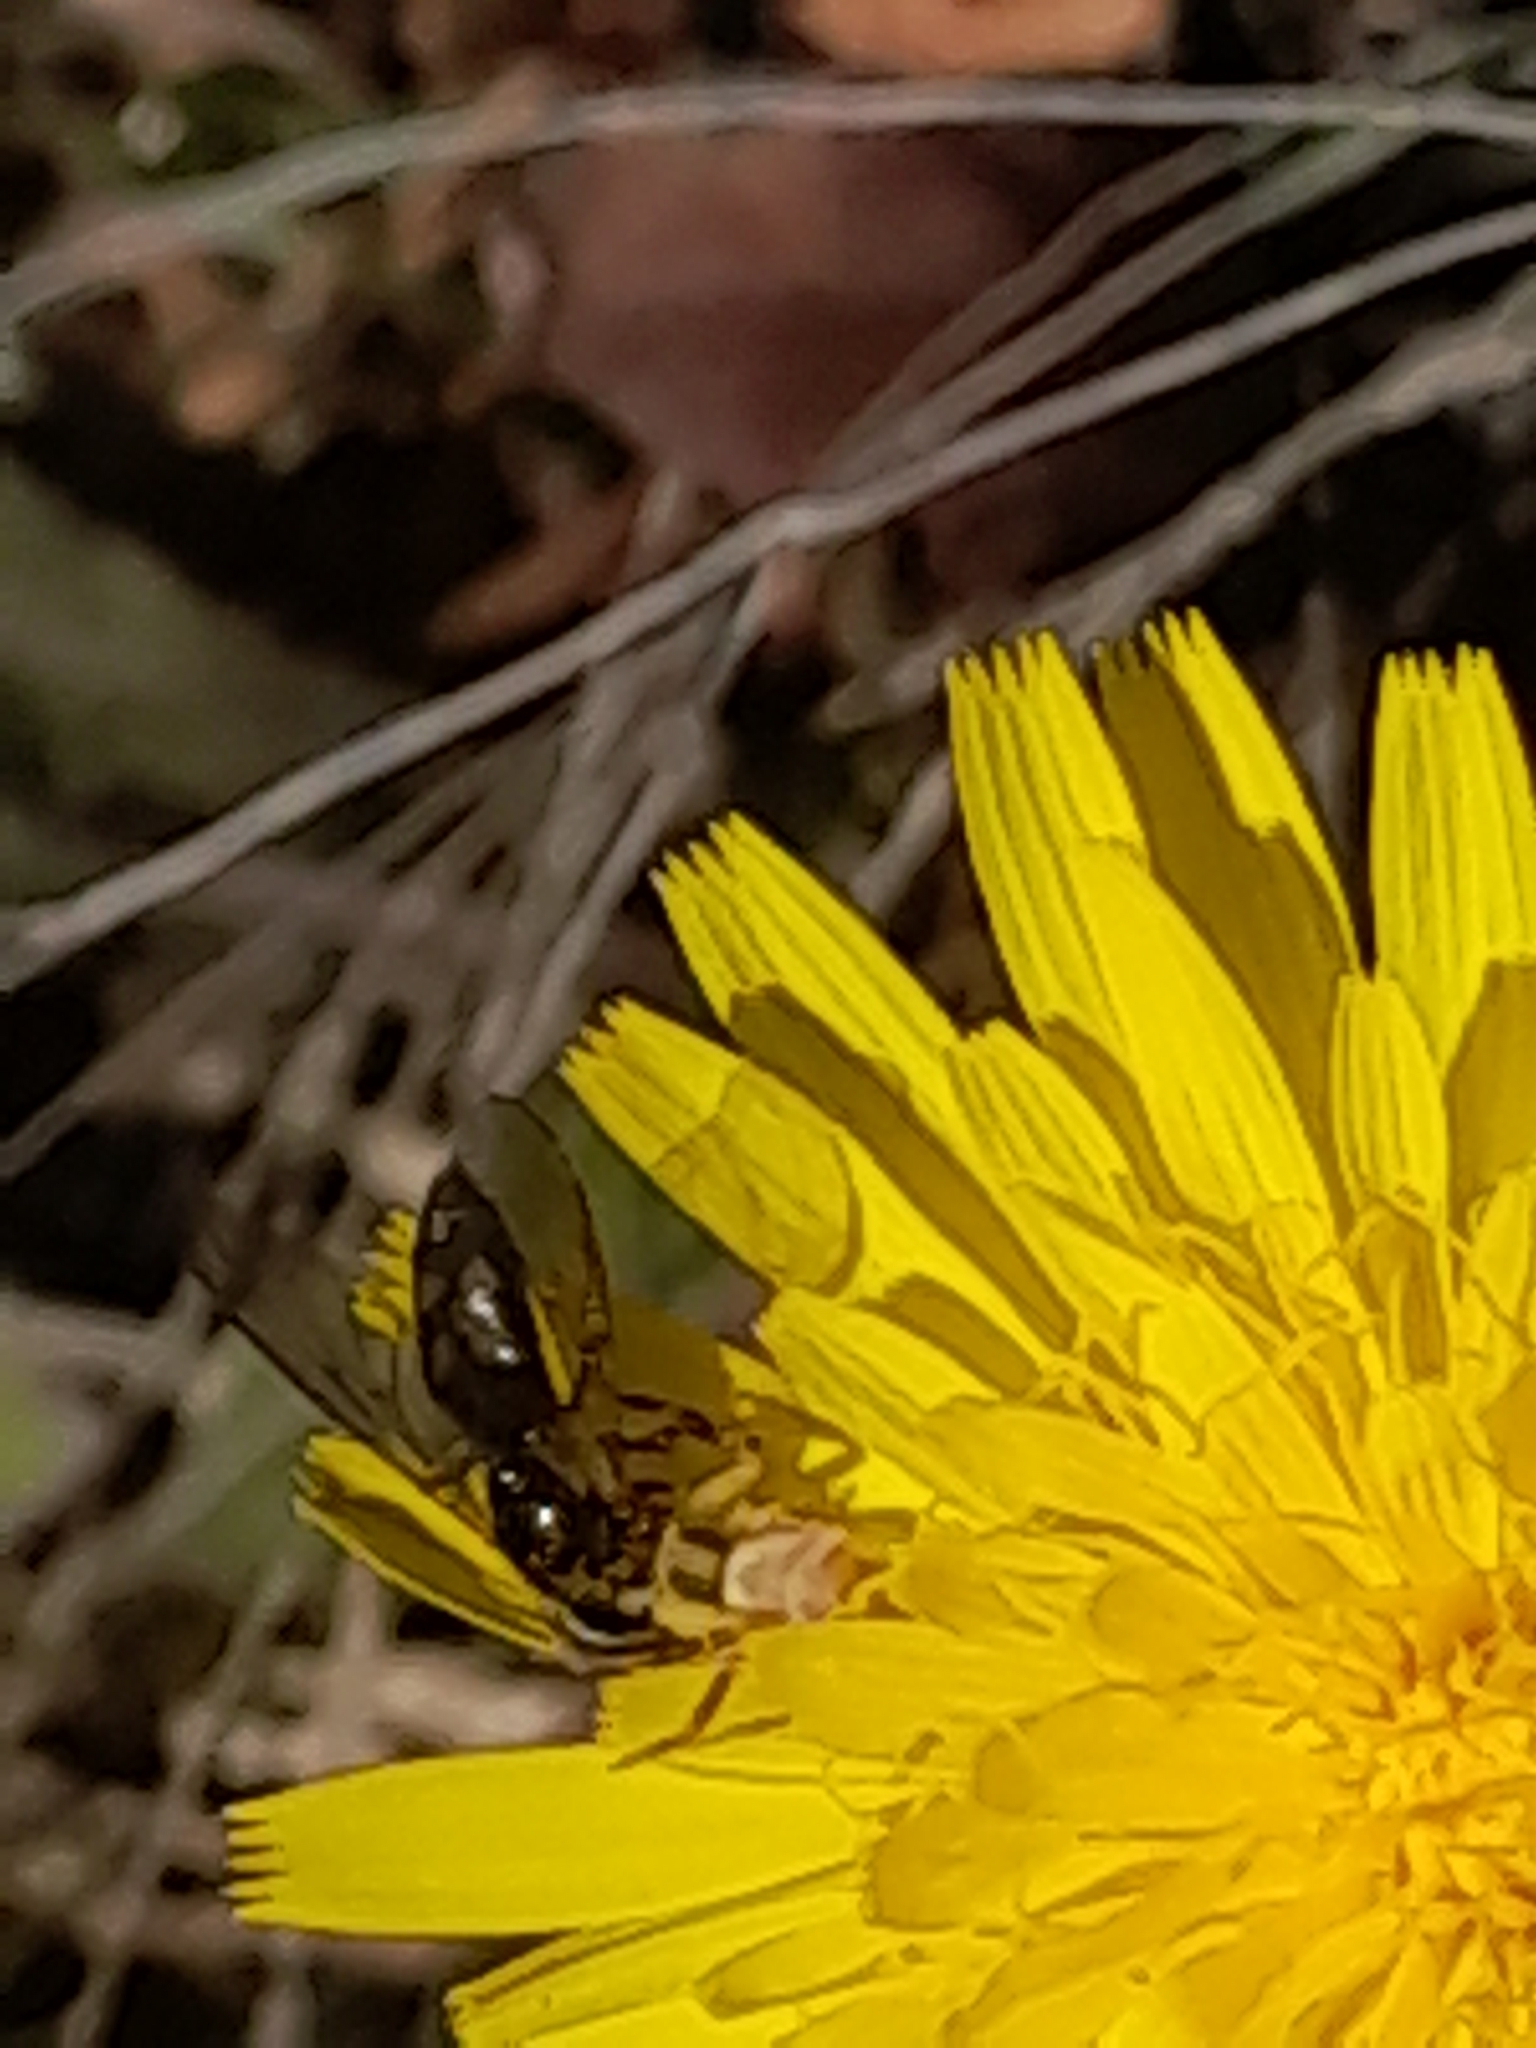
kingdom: Animalia
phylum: Arthropoda
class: Arachnida
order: Araneae
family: Thomisidae
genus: Thomisus
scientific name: Thomisus onustus
